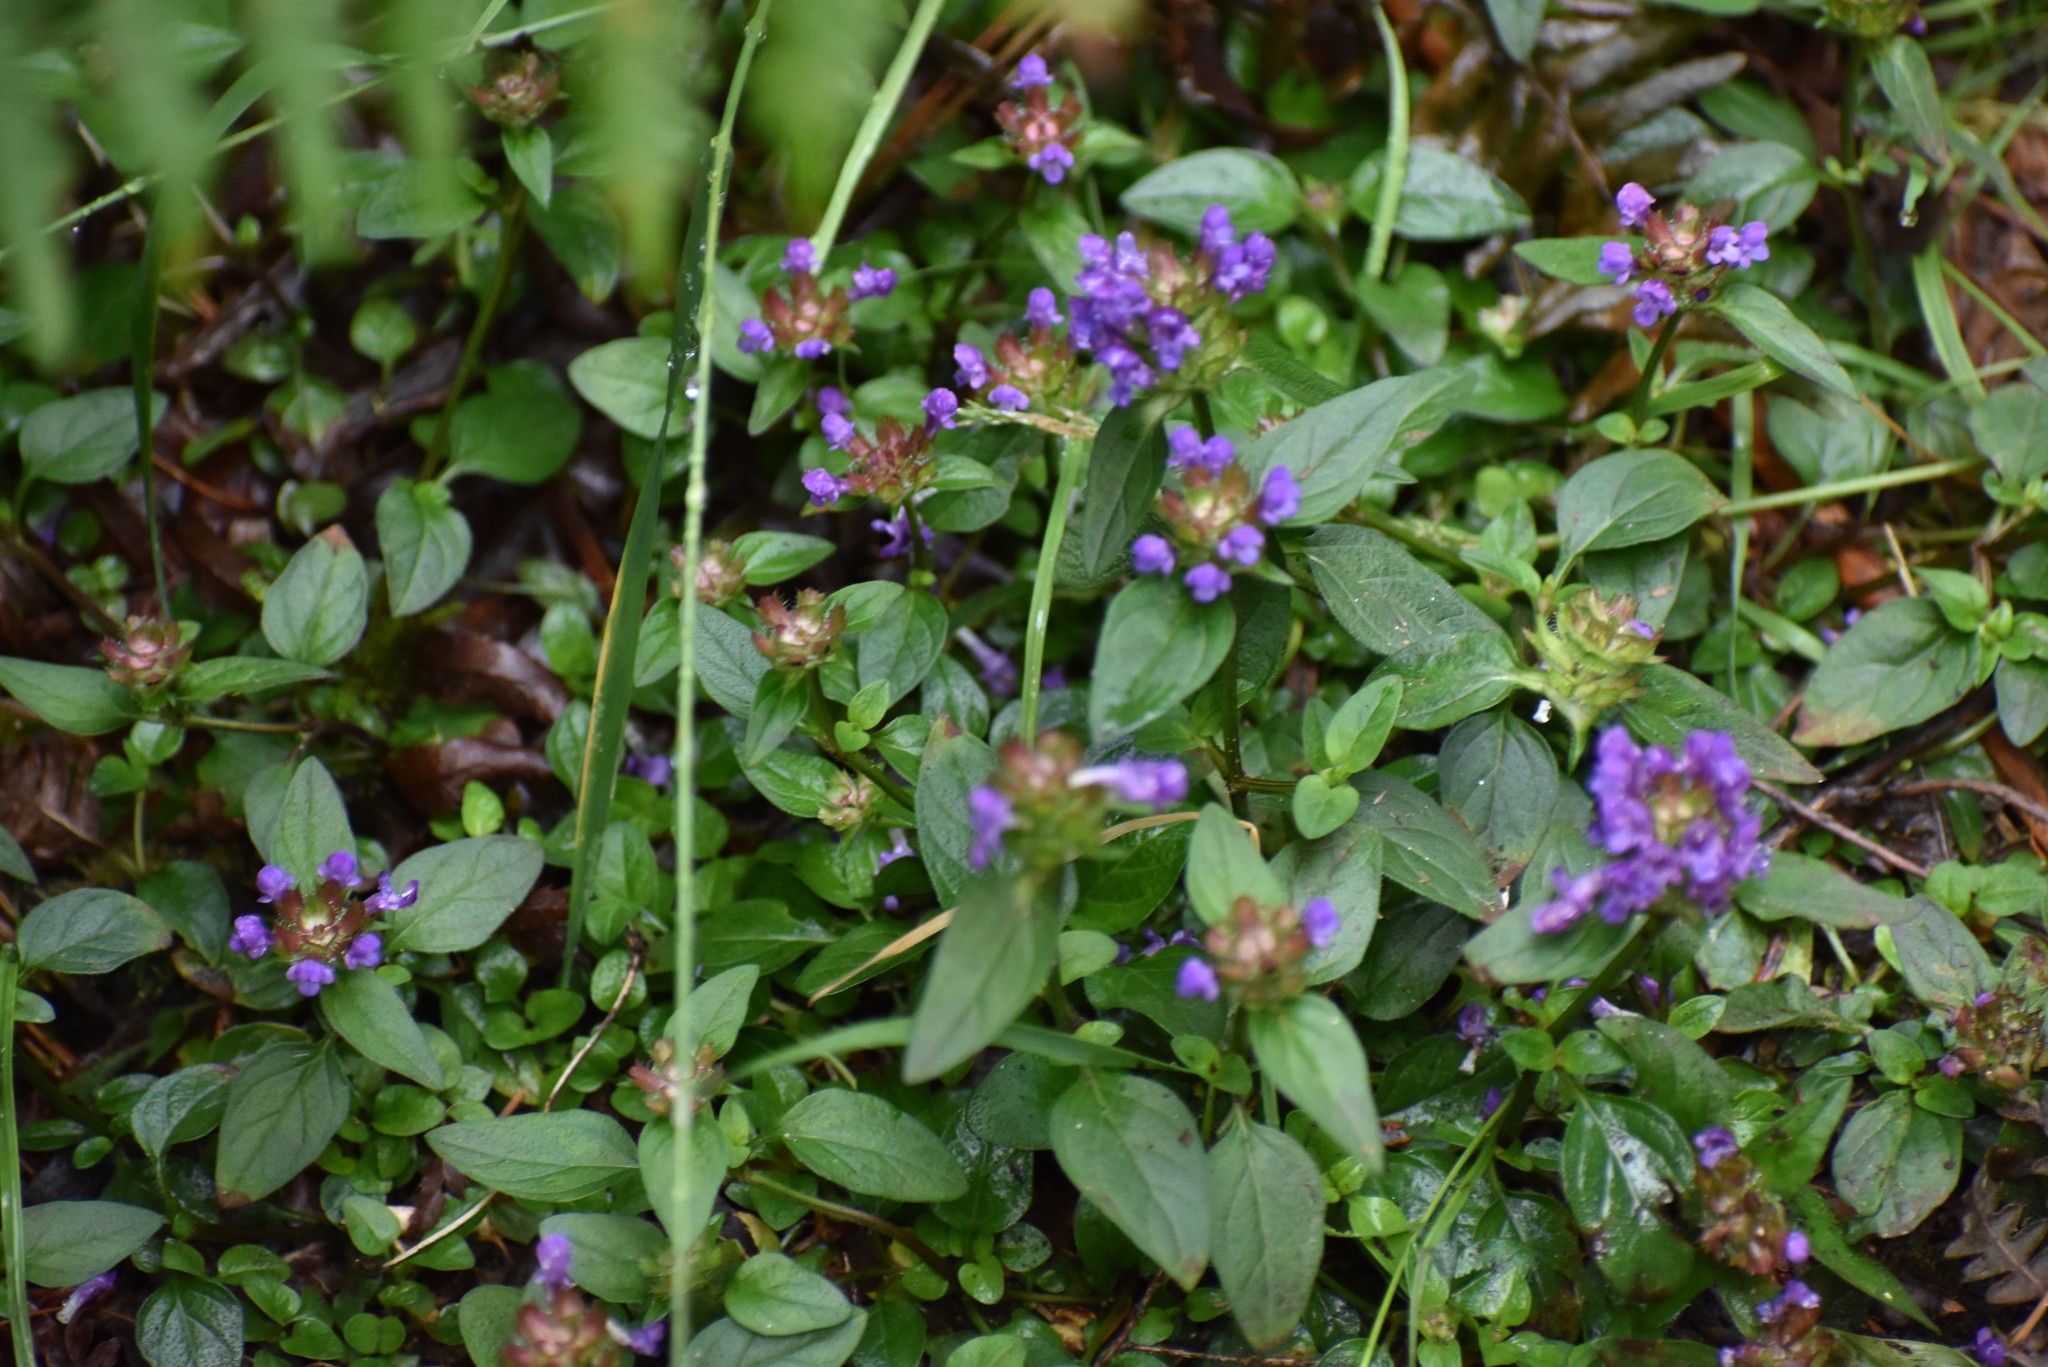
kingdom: Plantae
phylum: Tracheophyta
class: Magnoliopsida
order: Lamiales
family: Lamiaceae
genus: Prunella
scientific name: Prunella vulgaris
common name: Heal-all
